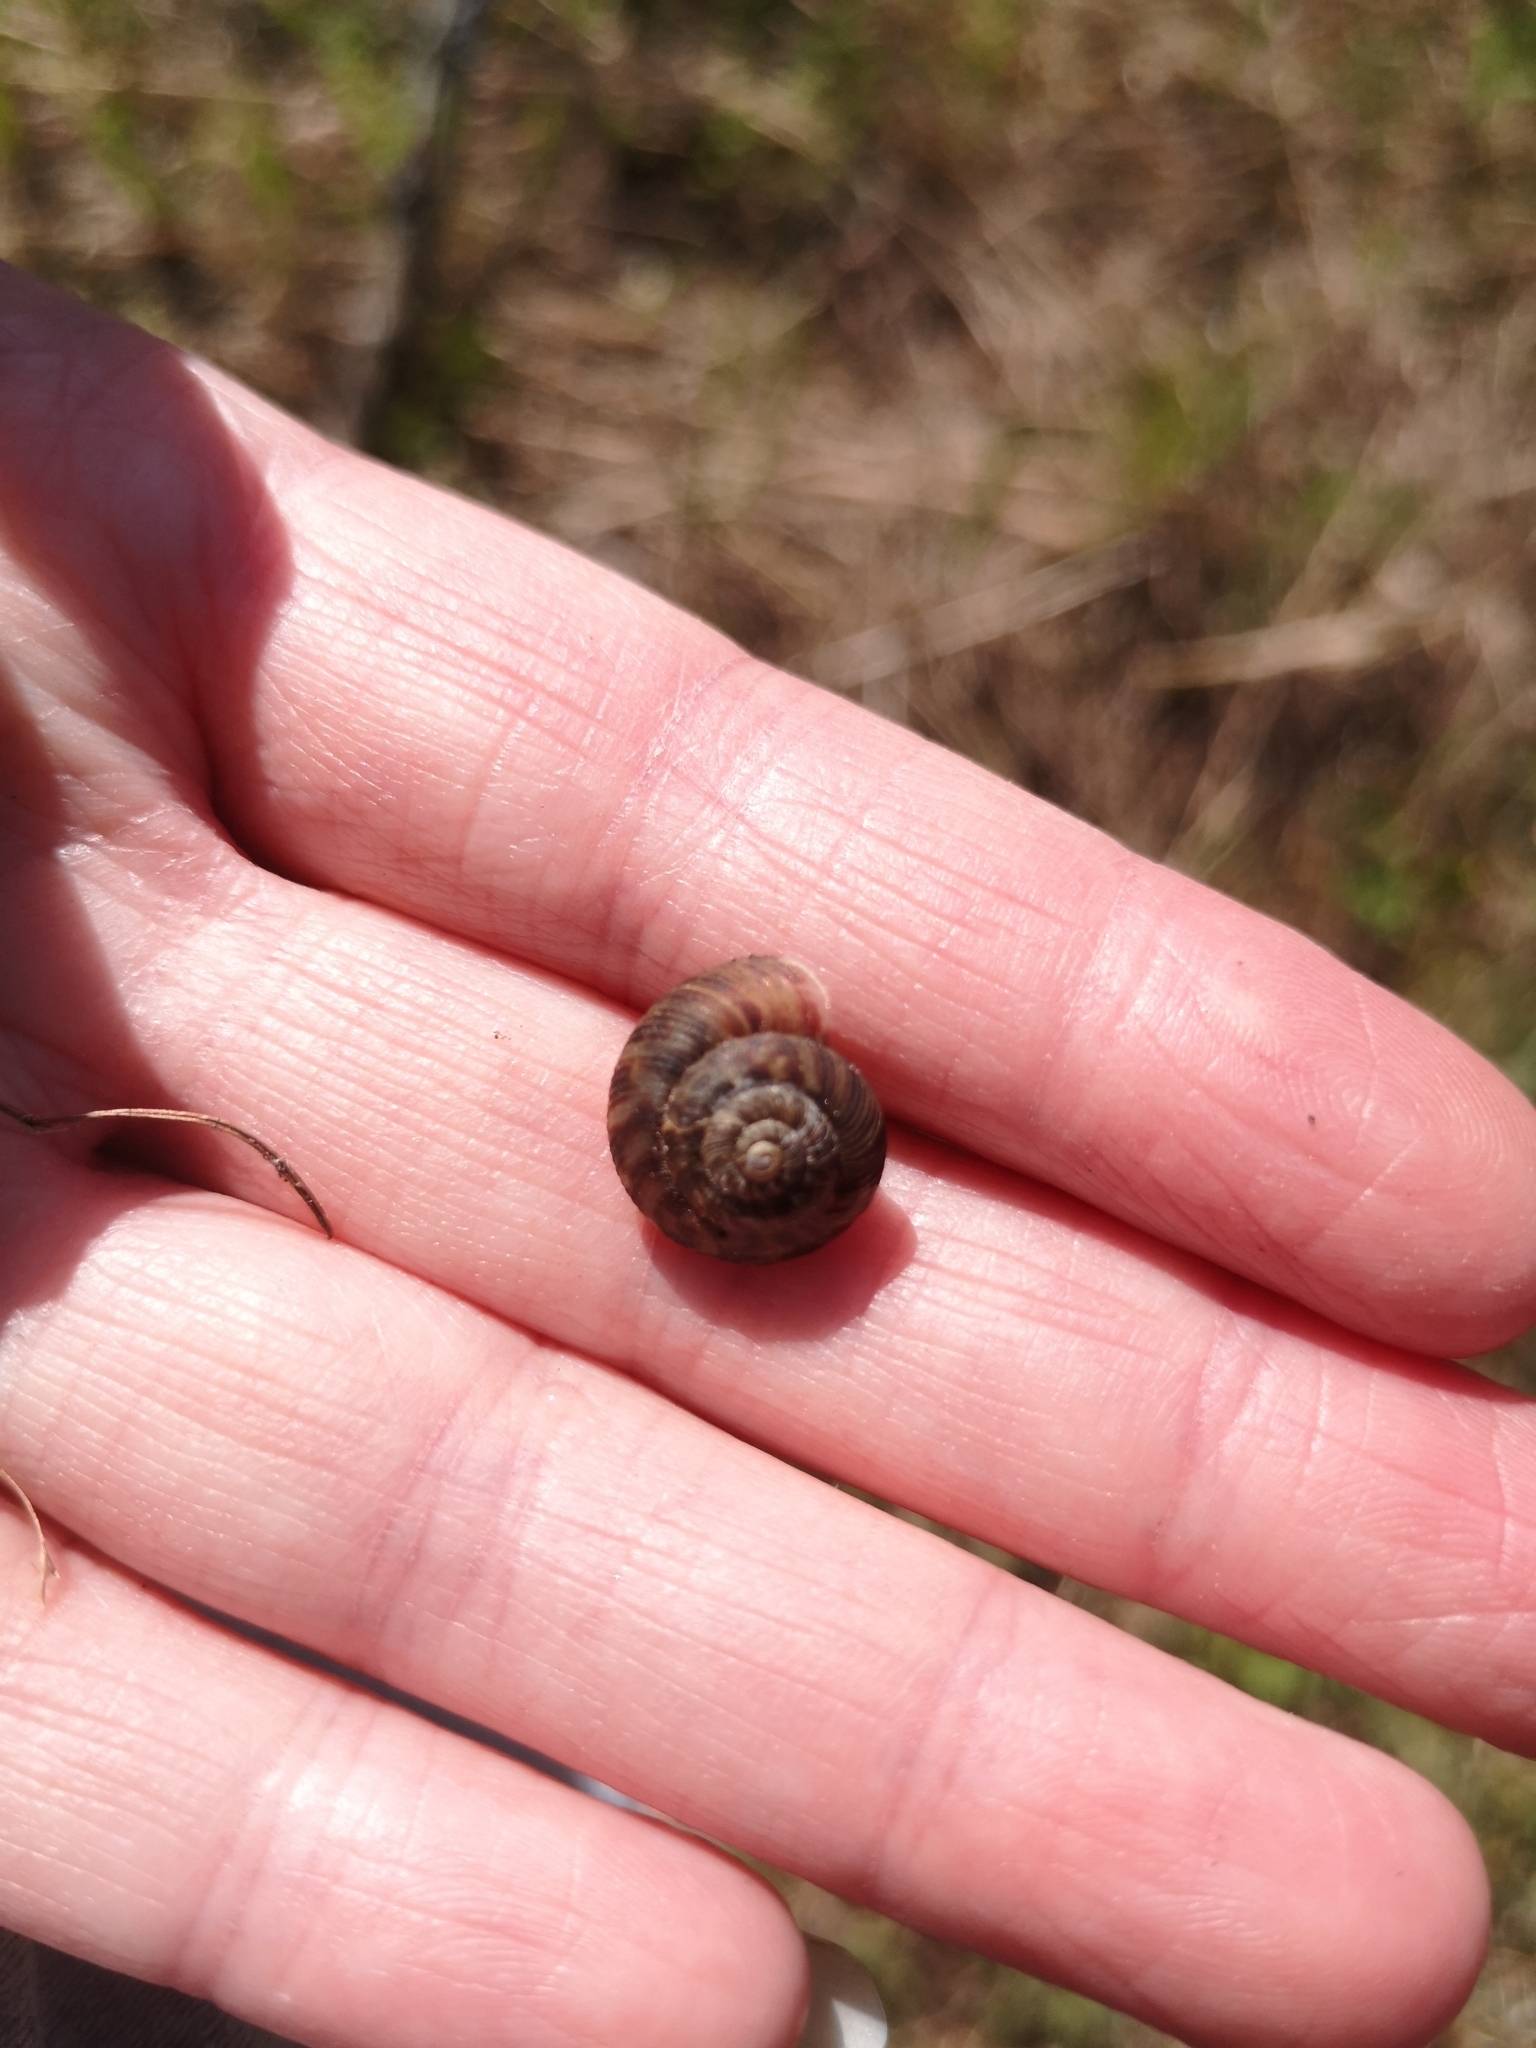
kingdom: Animalia
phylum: Mollusca
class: Gastropoda
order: Stylommatophora
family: Discidae
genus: Anguispira
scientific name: Anguispira alternata
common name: Flamed tigersnail
